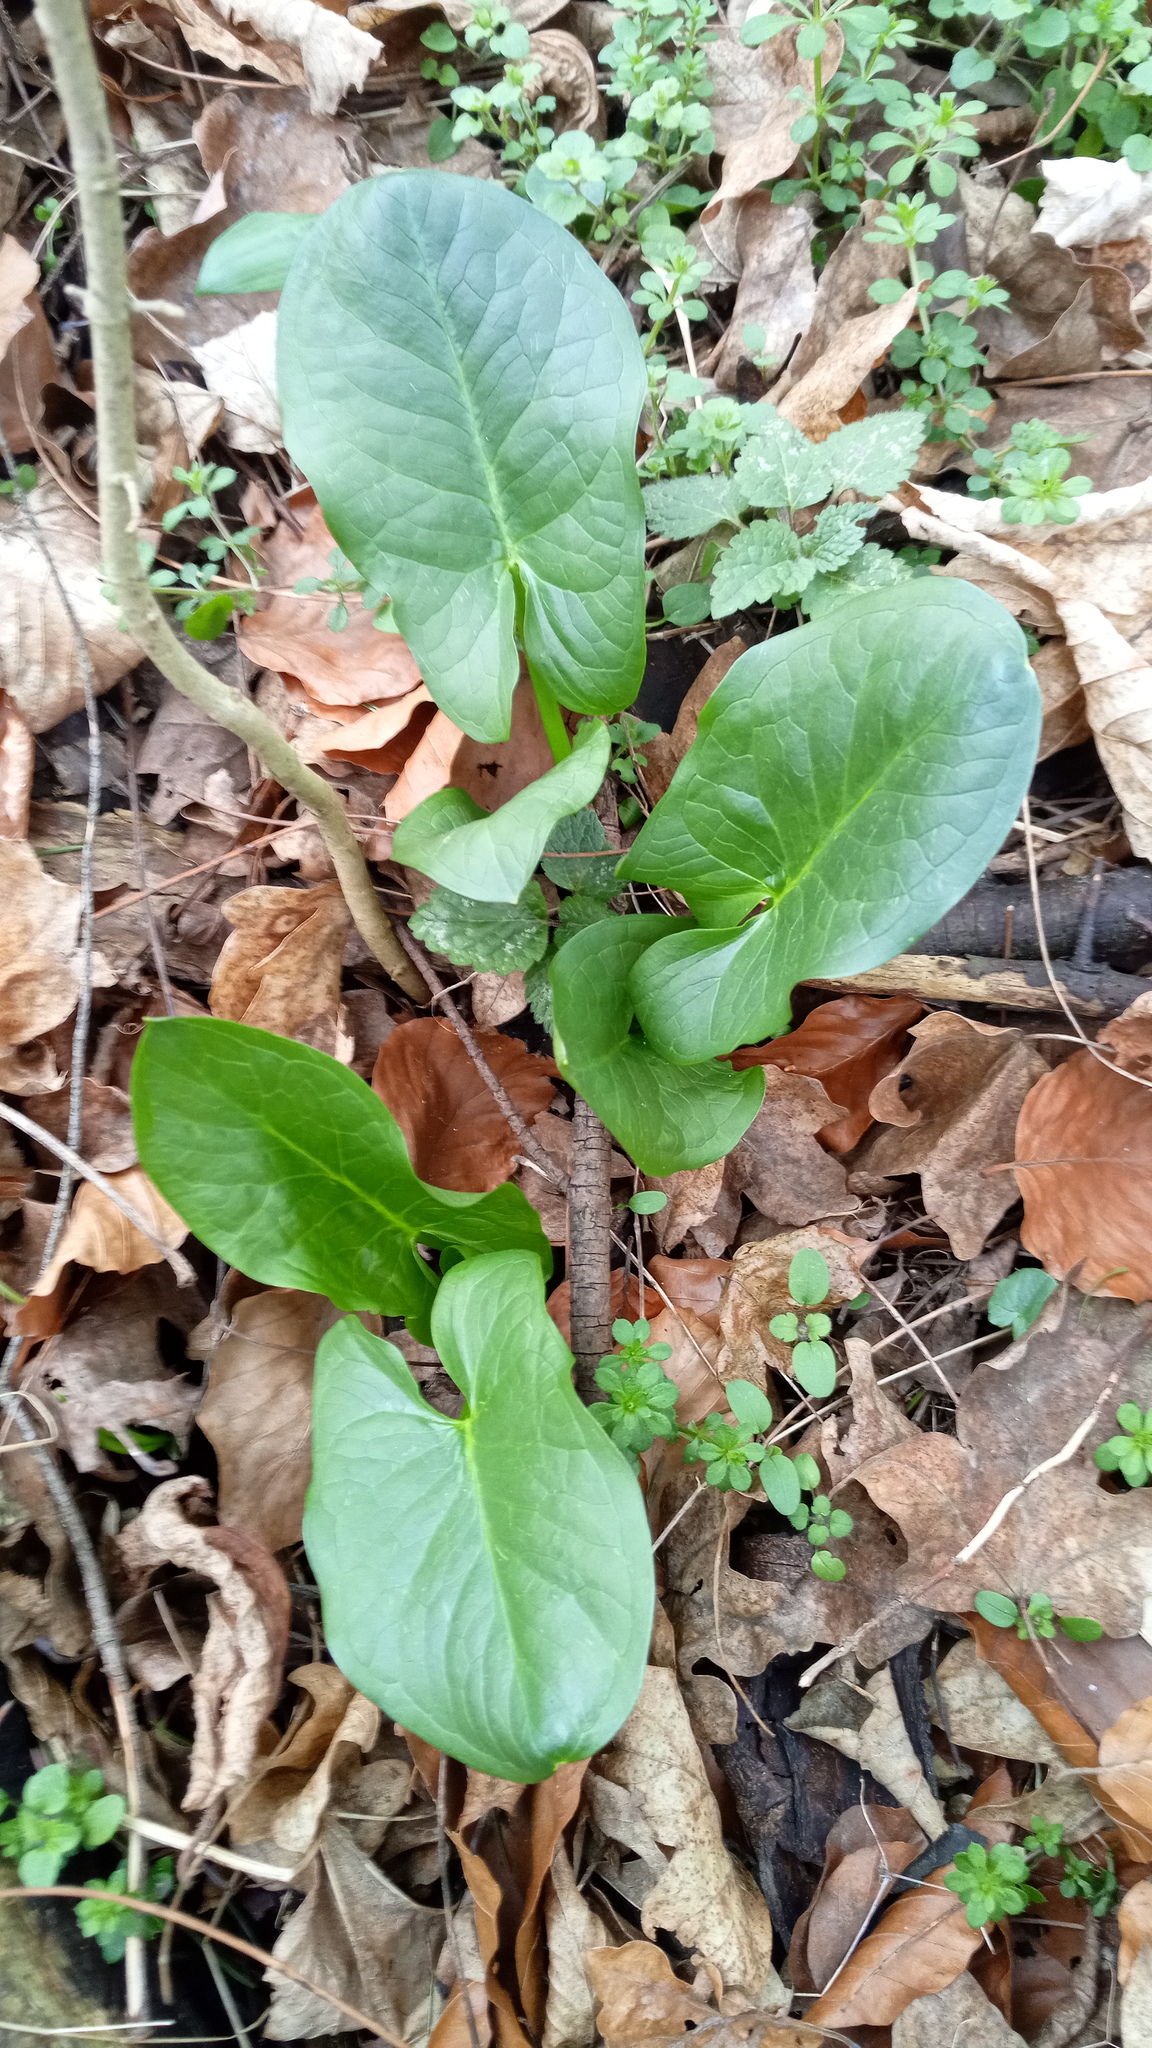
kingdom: Plantae
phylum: Tracheophyta
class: Liliopsida
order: Alismatales
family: Araceae
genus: Arum
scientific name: Arum cylindraceum
